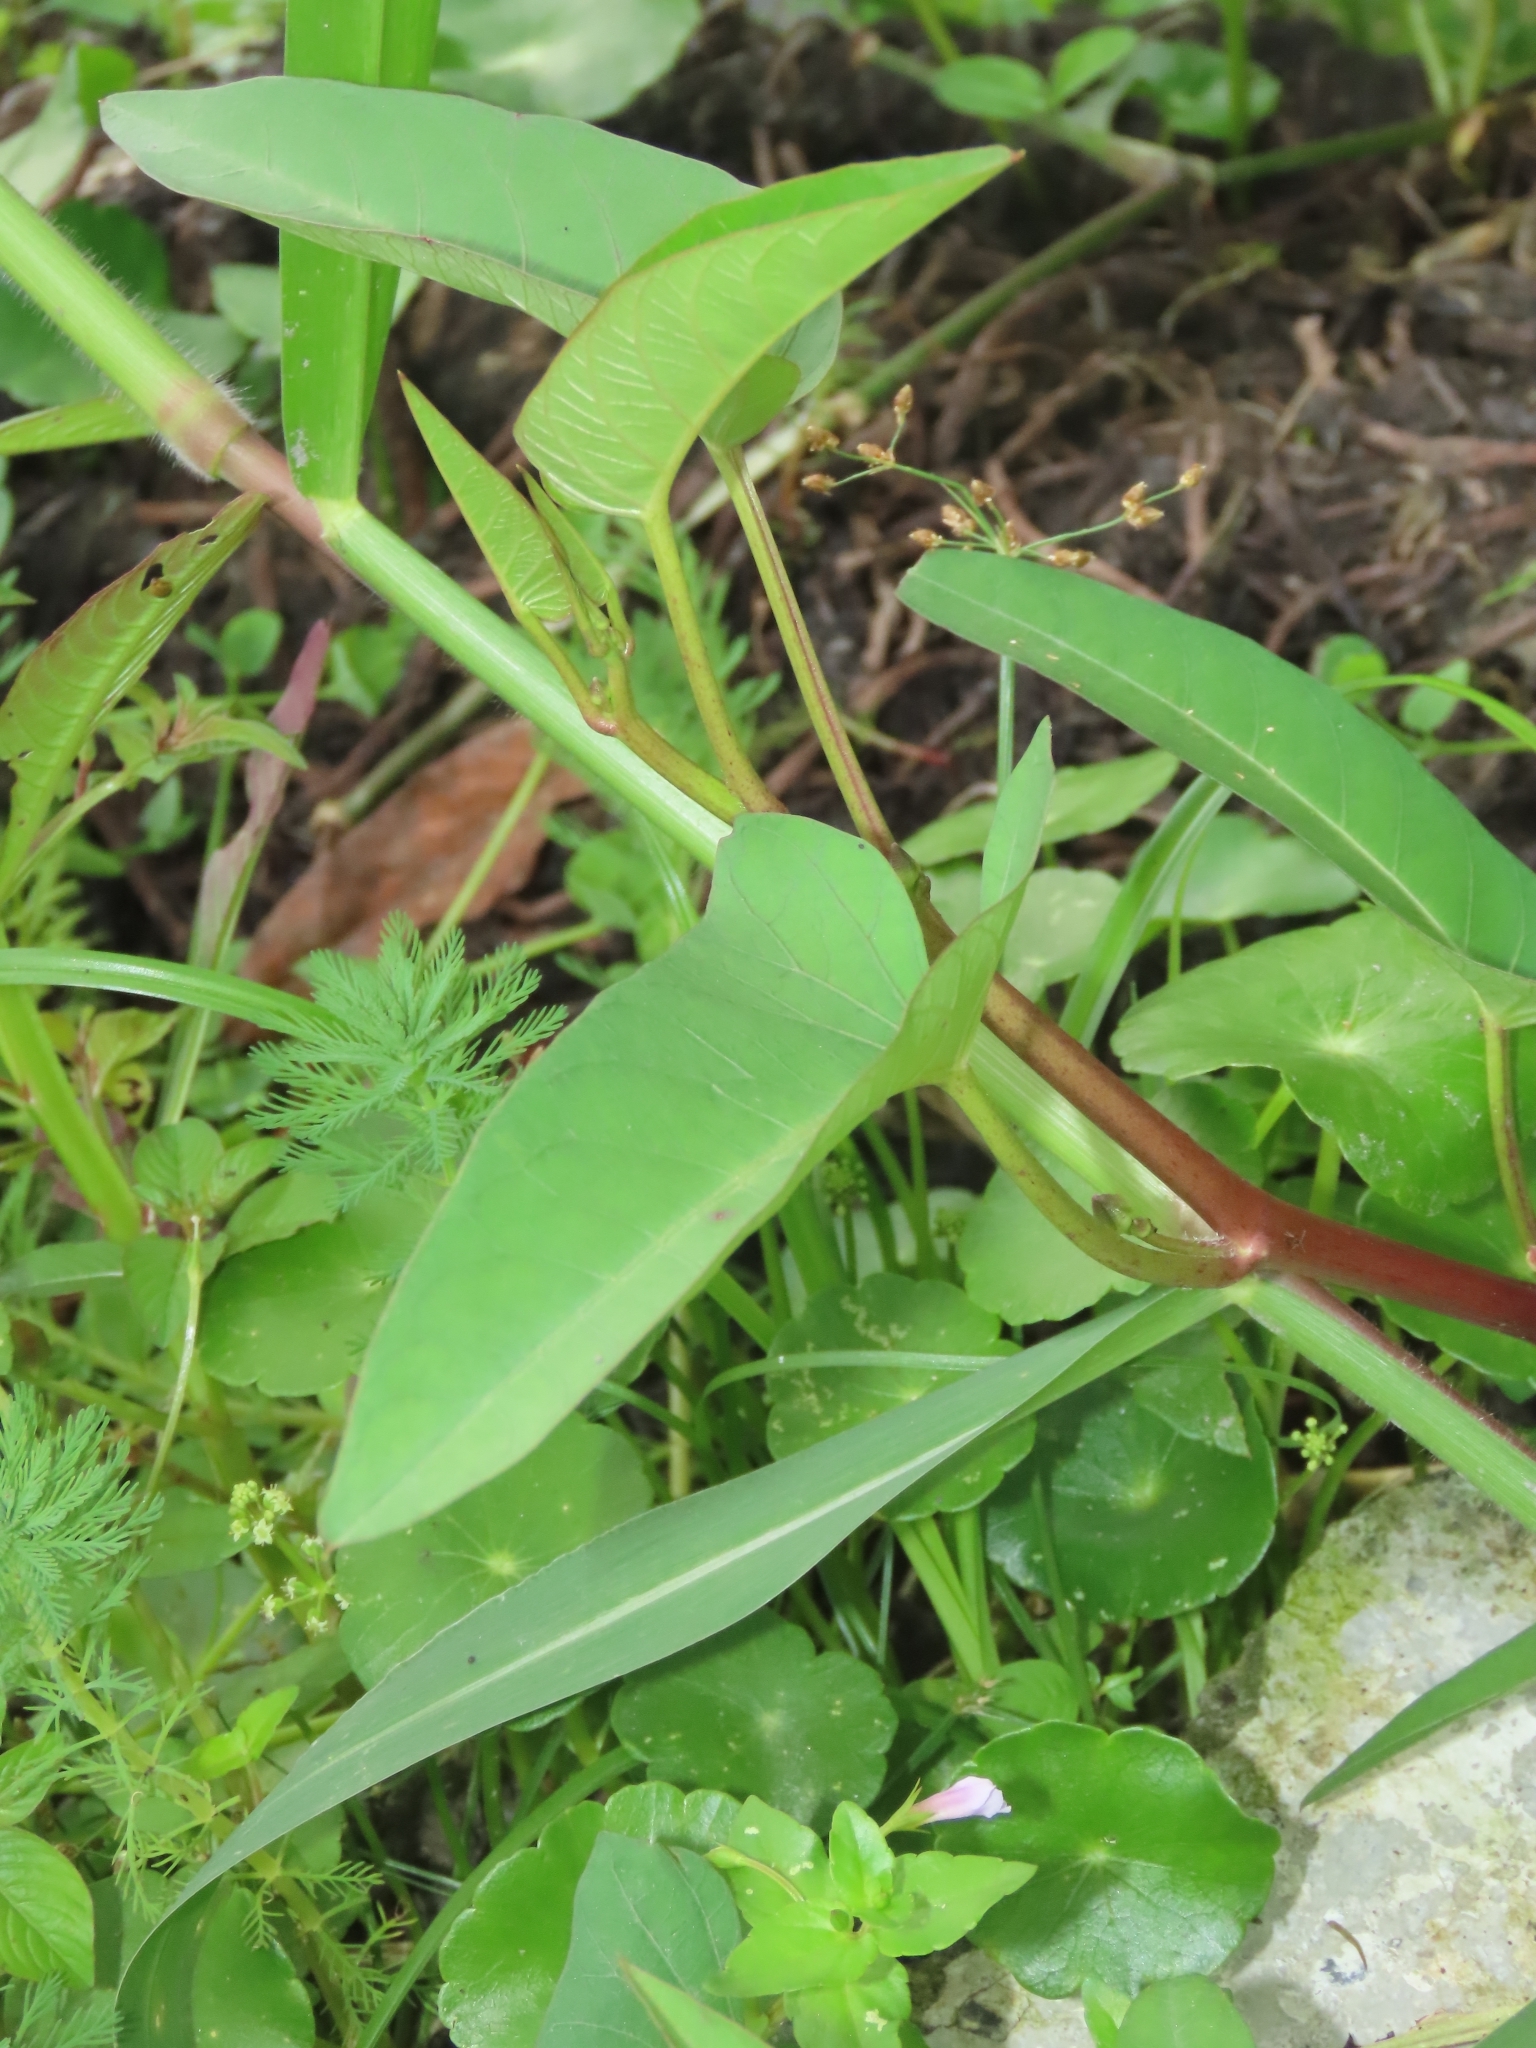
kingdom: Plantae
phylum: Tracheophyta
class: Magnoliopsida
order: Solanales
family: Convolvulaceae
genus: Ipomoea
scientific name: Ipomoea aquatica
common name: Swamp morning-glory
